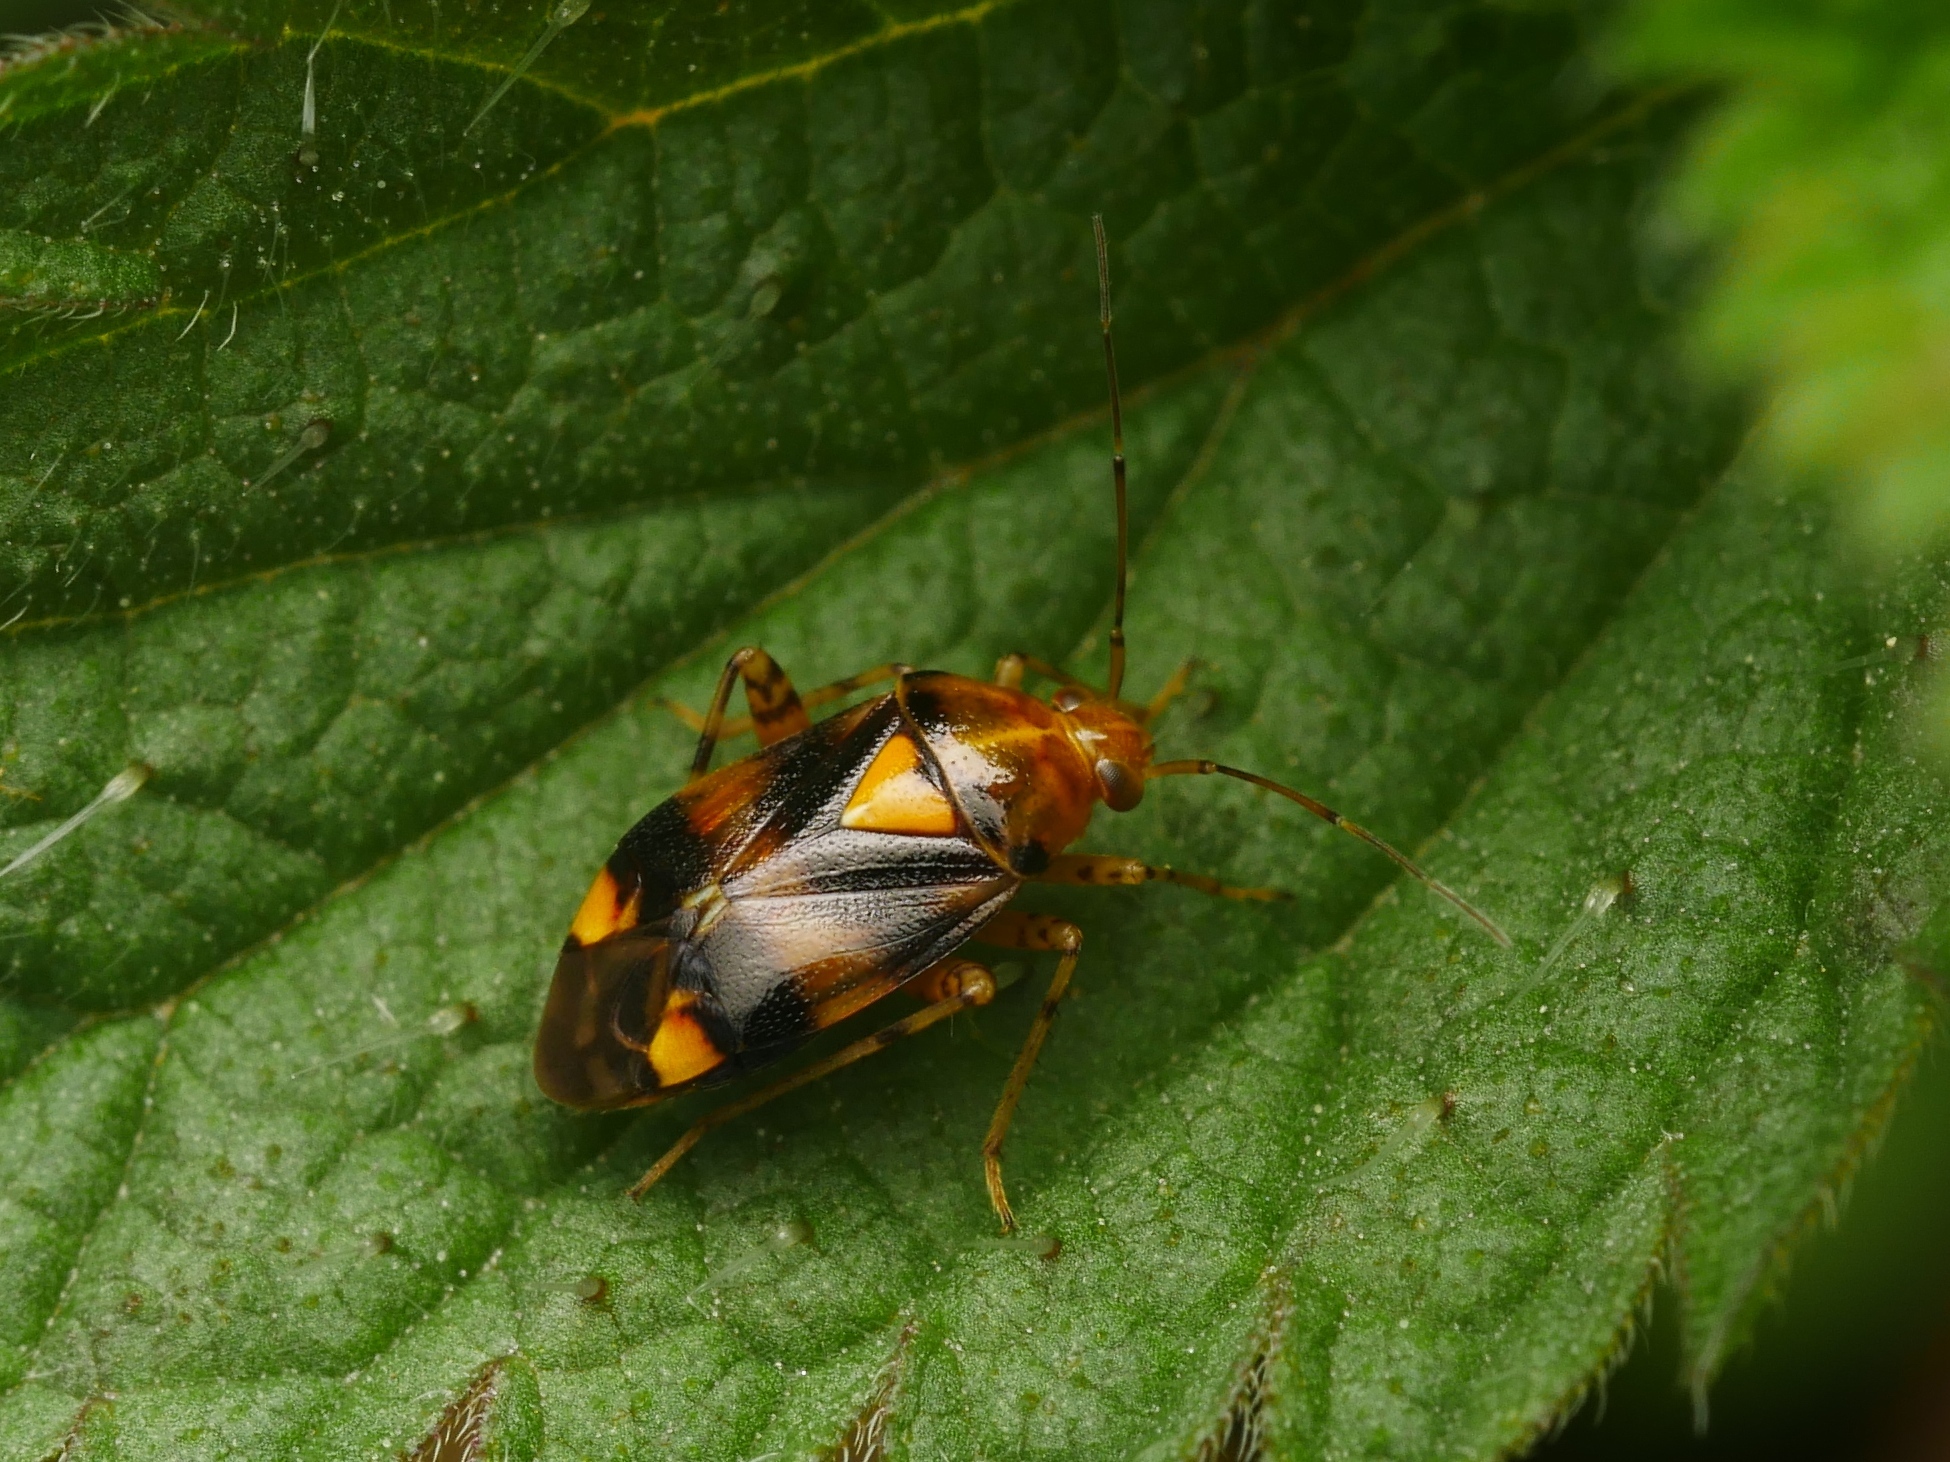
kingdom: Animalia
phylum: Arthropoda
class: Insecta
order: Hemiptera
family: Miridae
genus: Liocoris
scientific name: Liocoris tripustulatus
